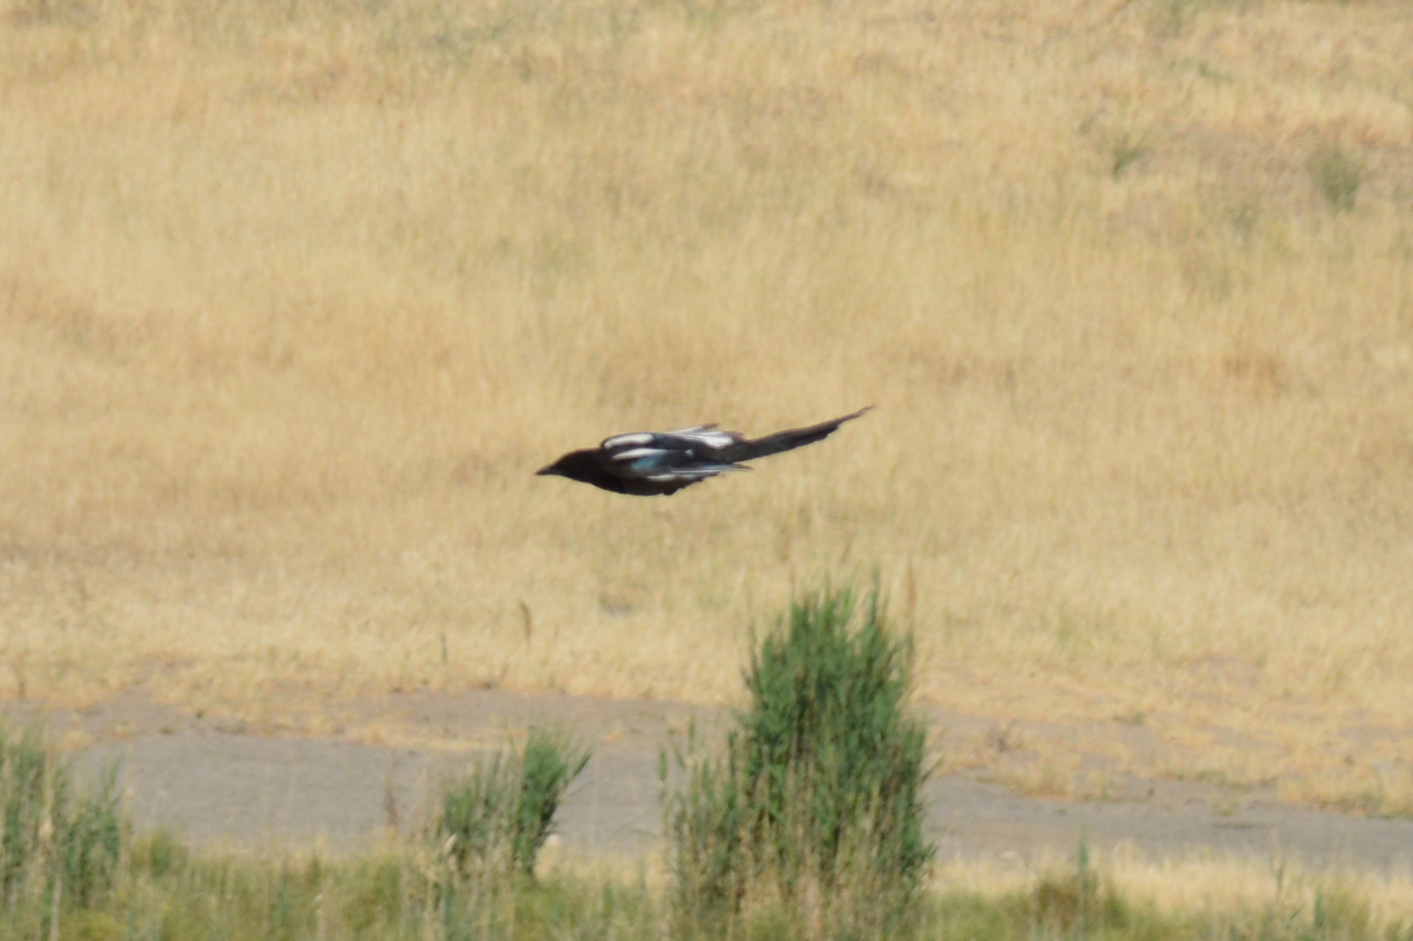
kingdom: Animalia
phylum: Chordata
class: Aves
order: Passeriformes
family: Corvidae
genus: Pica
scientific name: Pica pica
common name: Eurasian magpie
